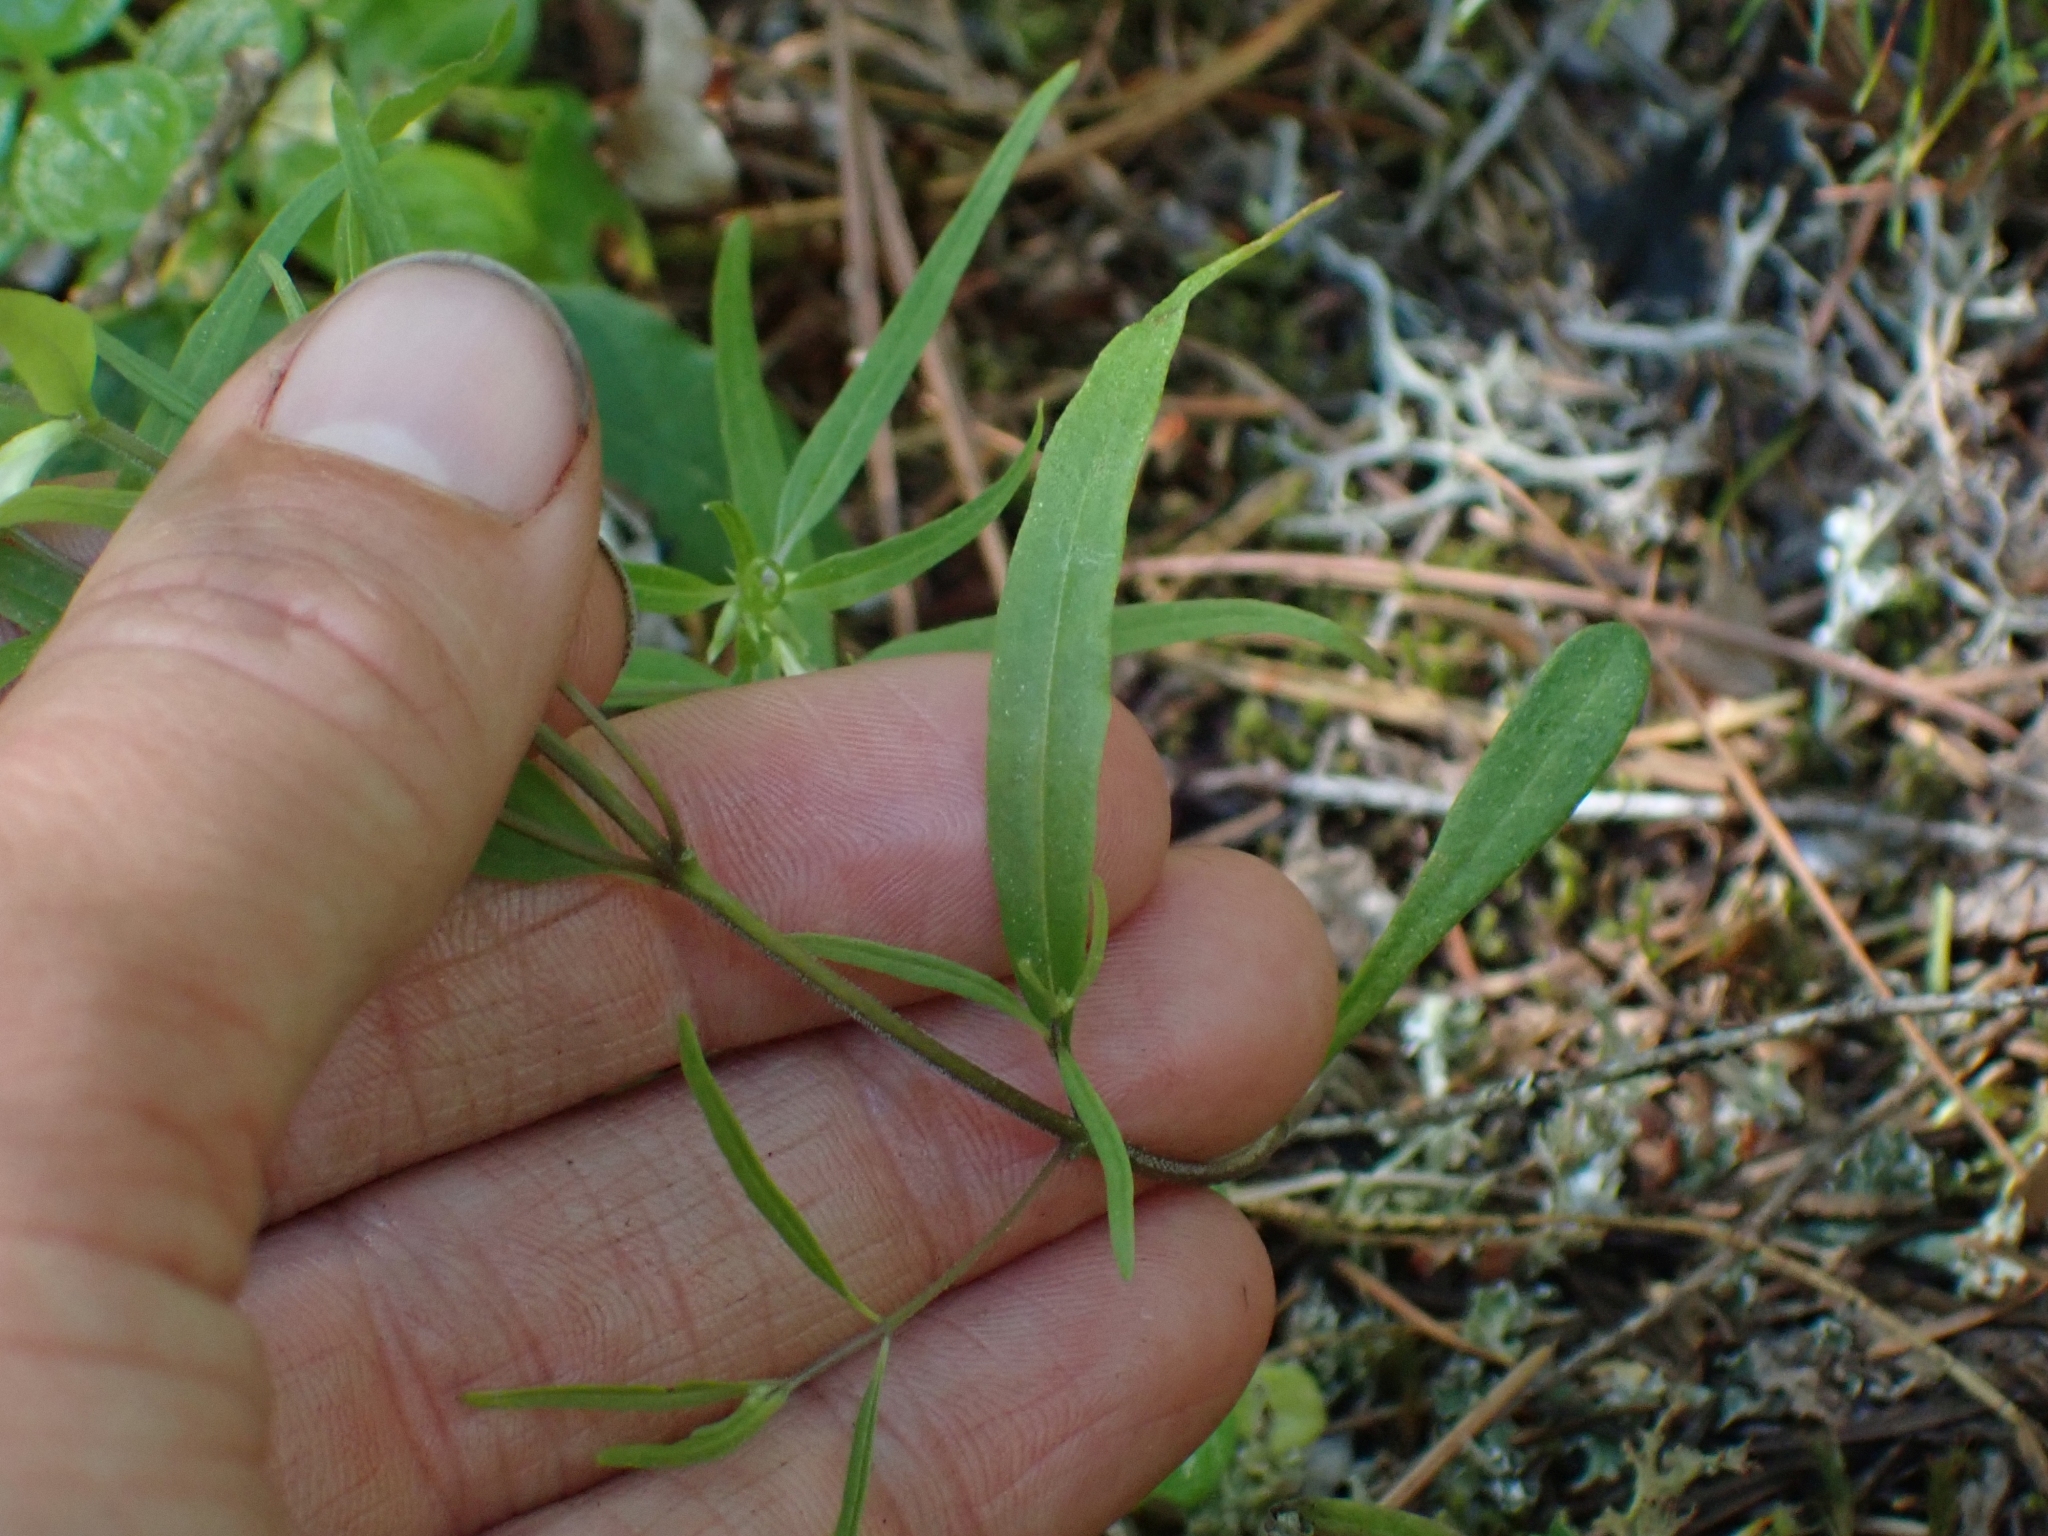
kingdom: Plantae
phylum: Tracheophyta
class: Magnoliopsida
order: Lamiales
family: Orobanchaceae
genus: Melampyrum
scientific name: Melampyrum lineare
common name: American cow-wheat
